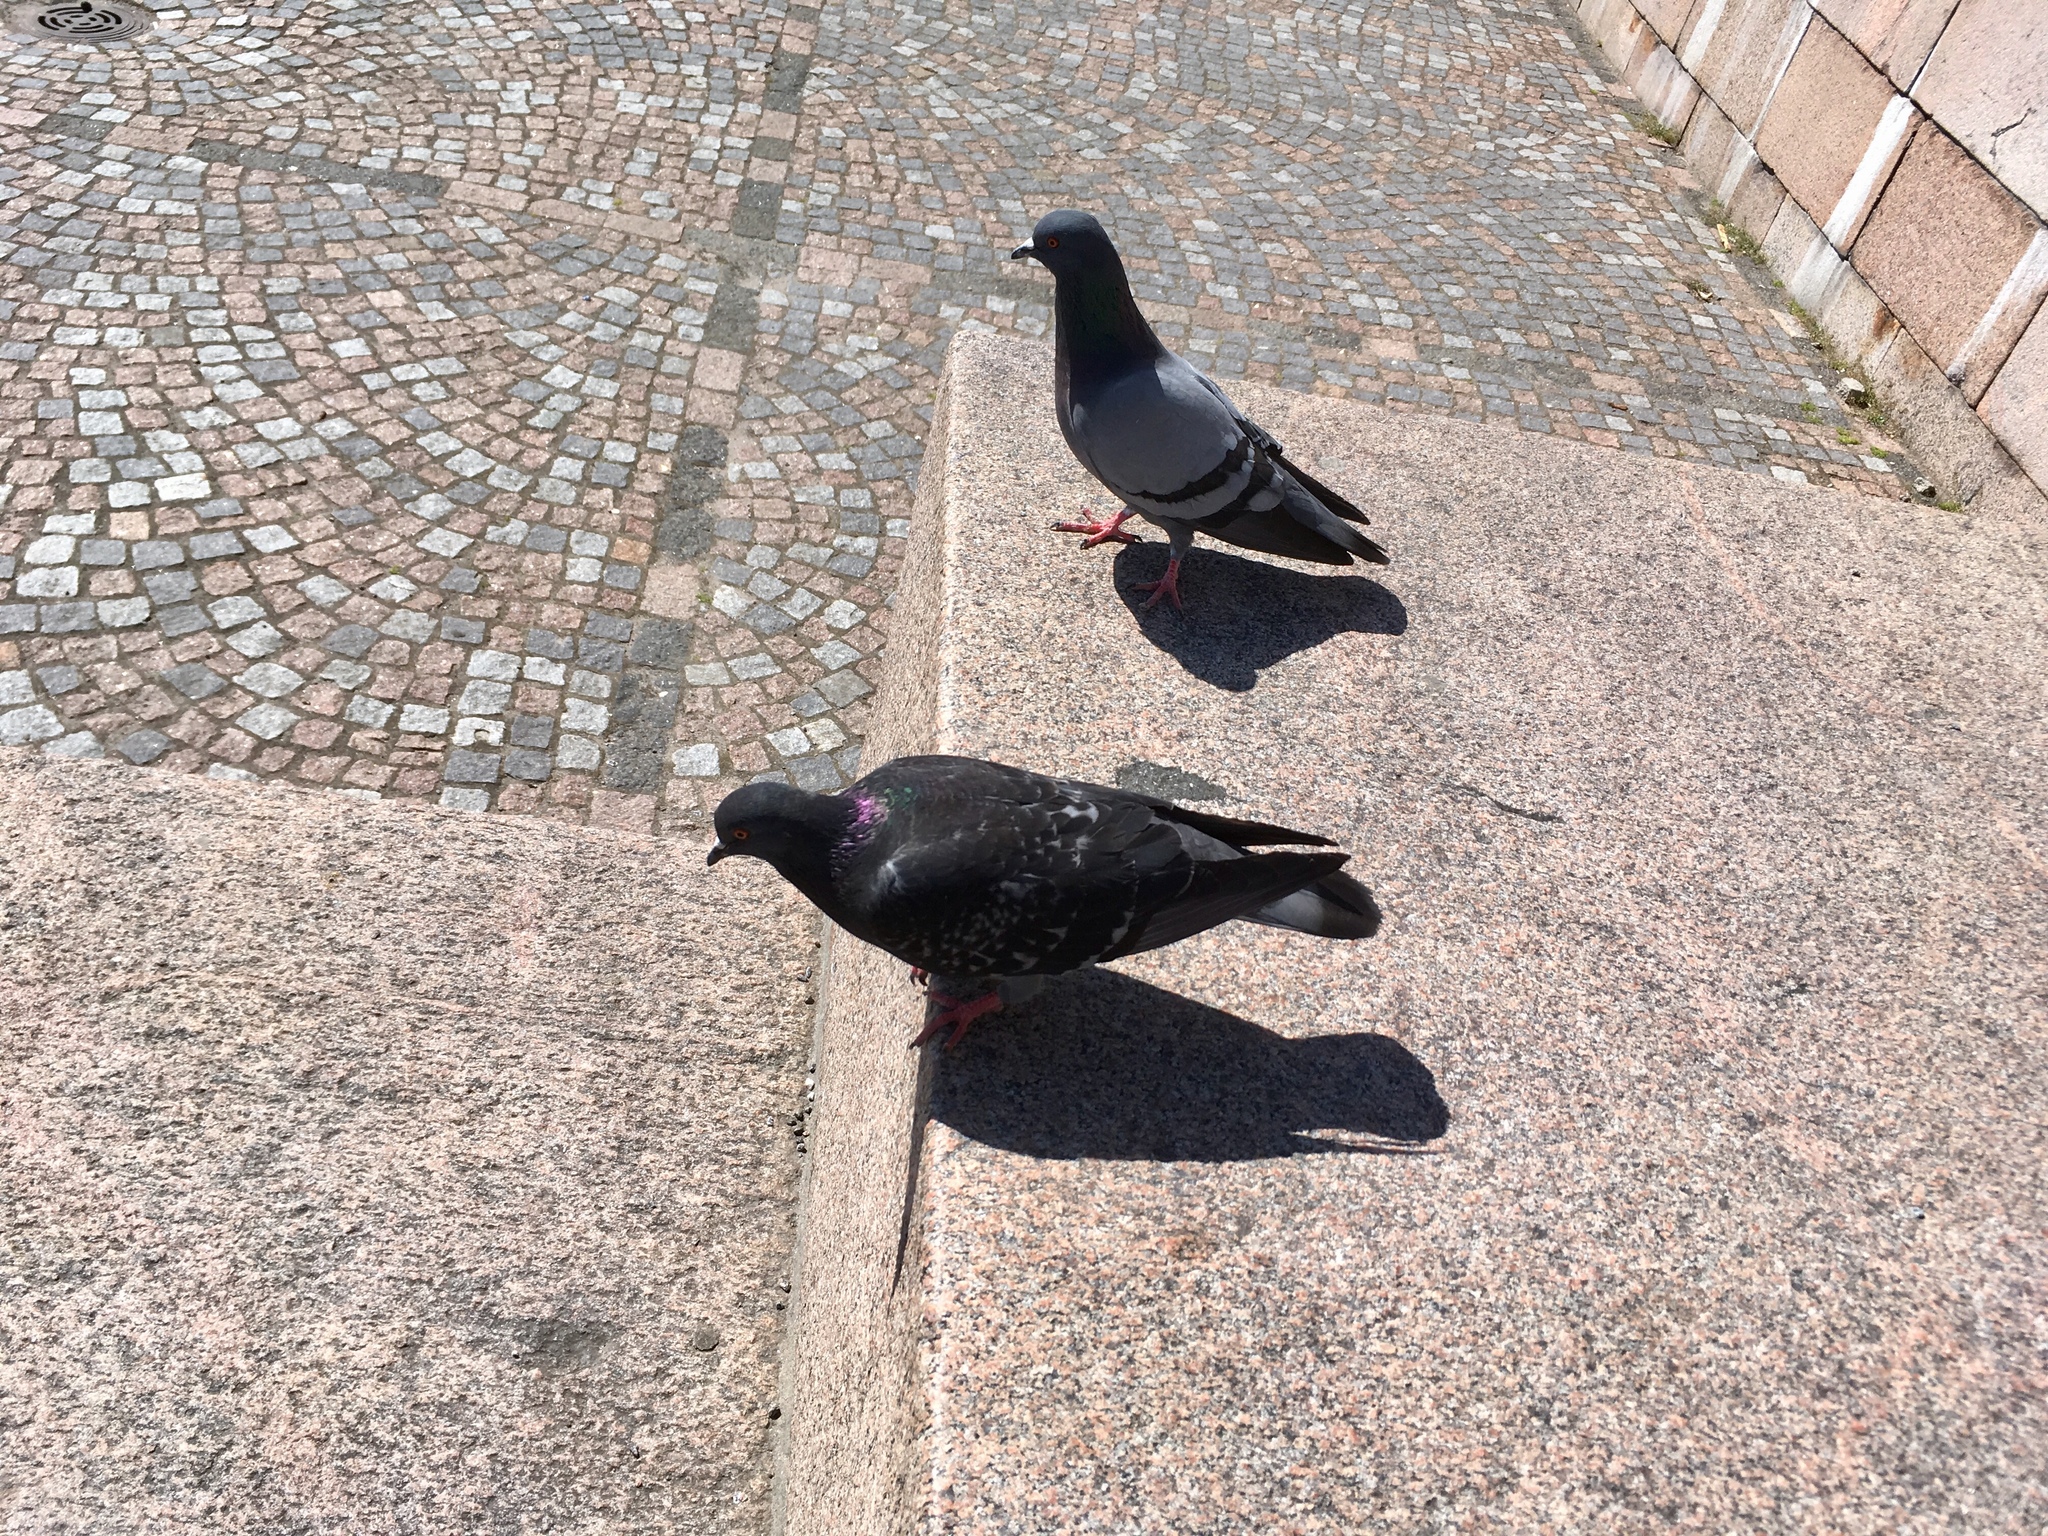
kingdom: Animalia
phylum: Chordata
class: Aves
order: Columbiformes
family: Columbidae
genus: Columba
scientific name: Columba livia
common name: Rock pigeon
